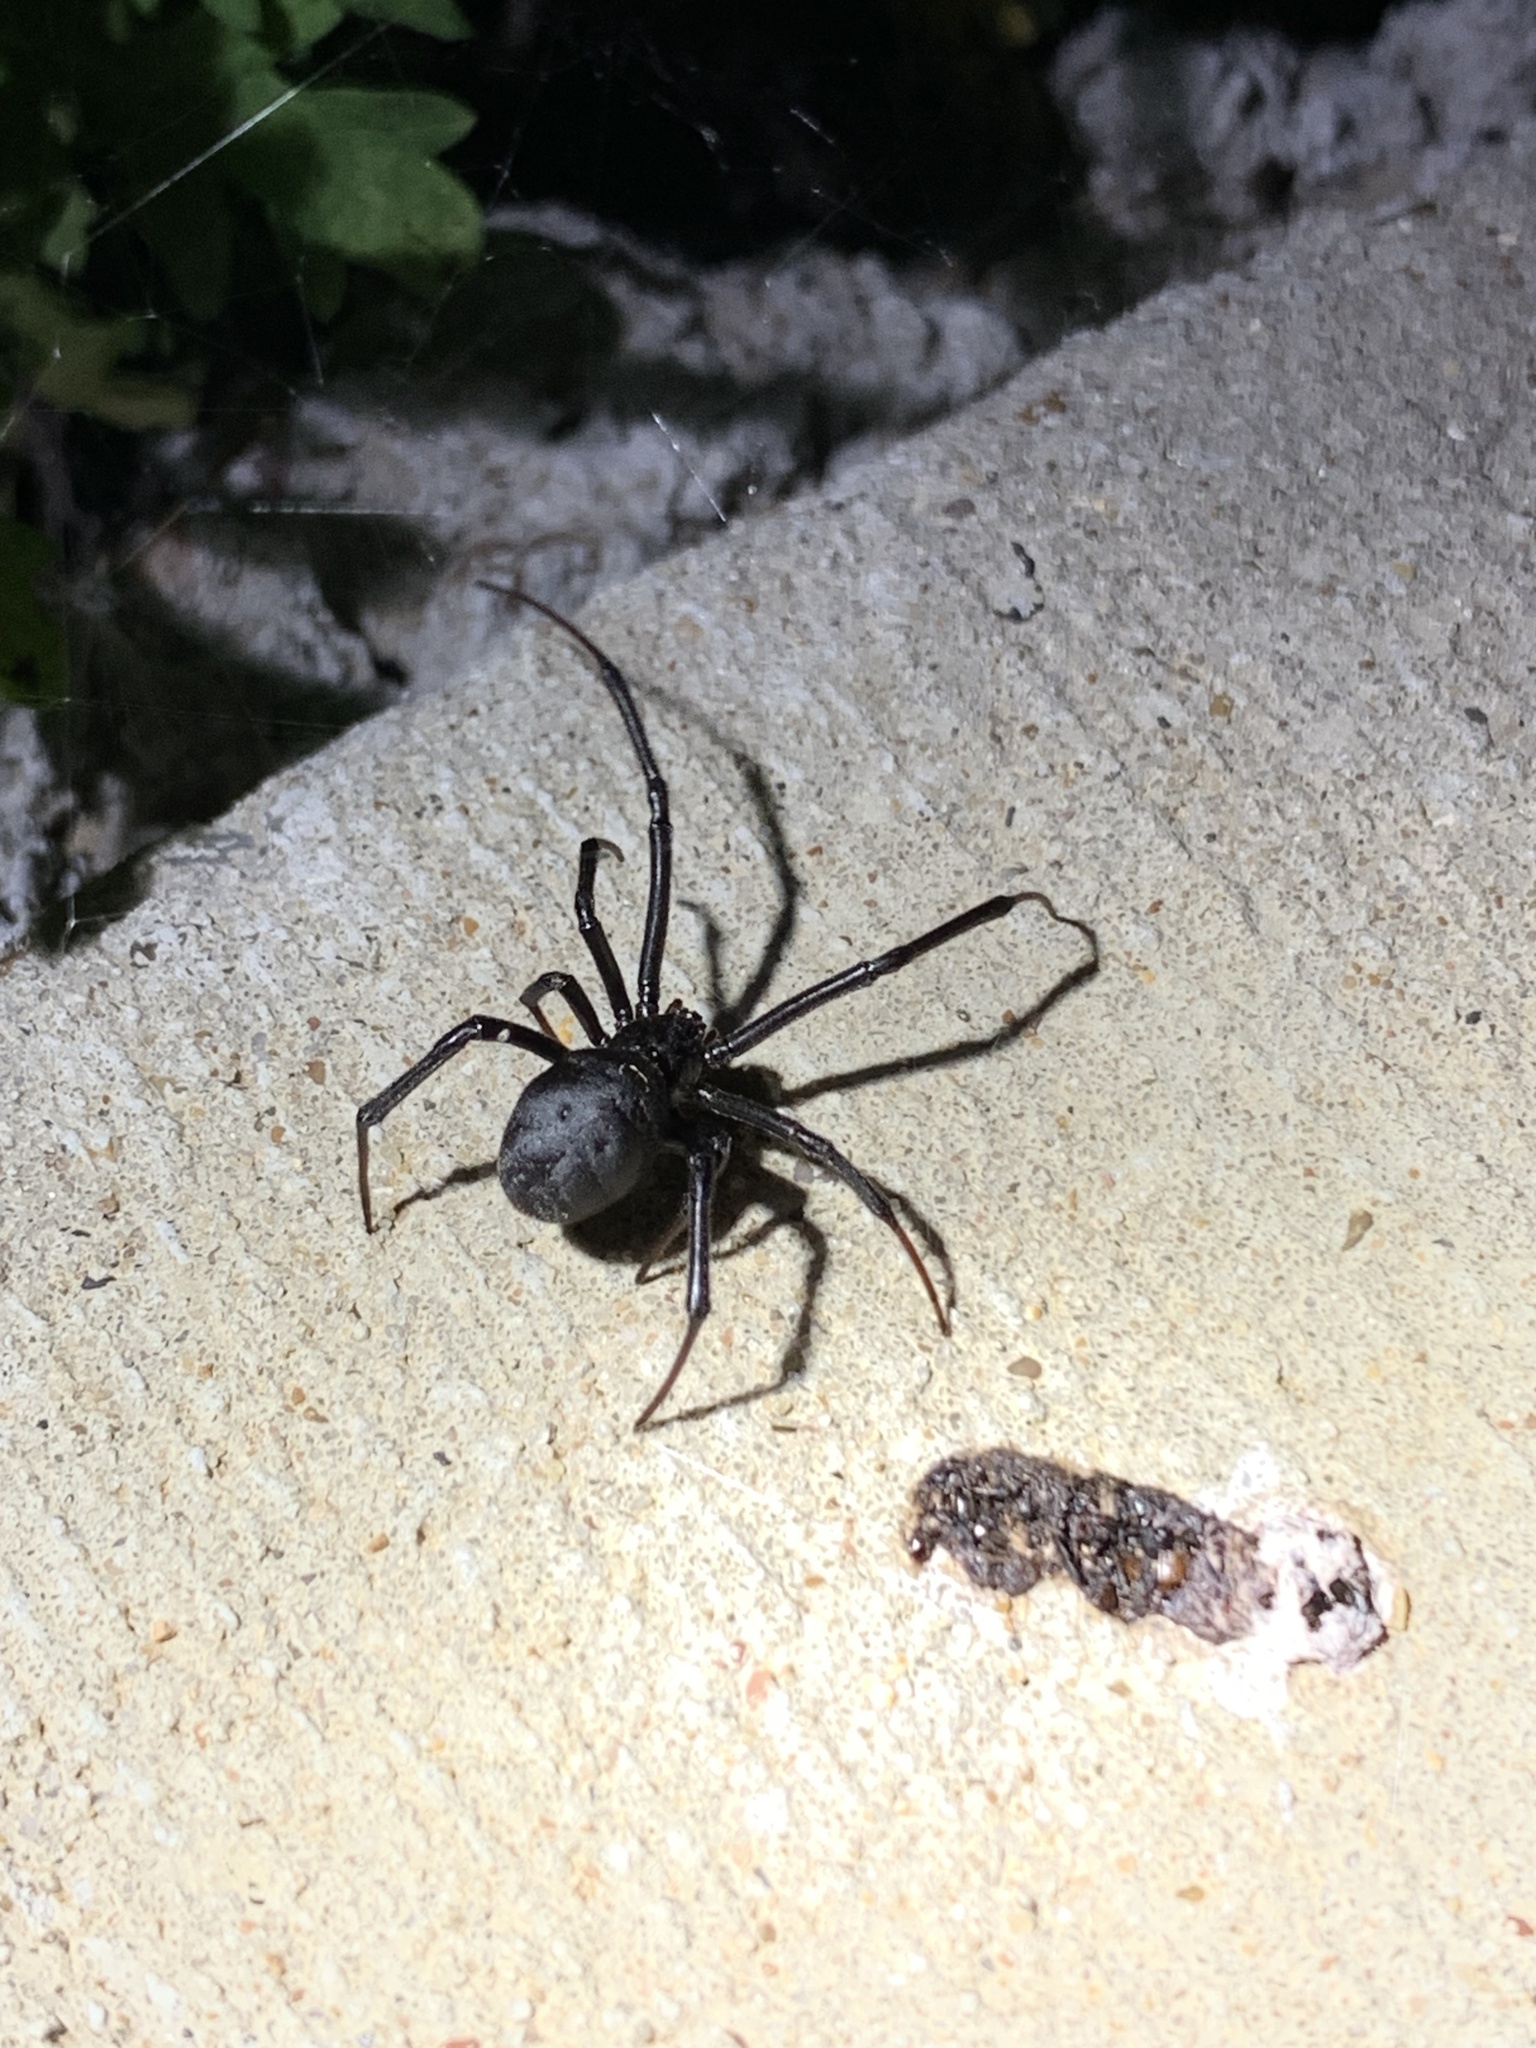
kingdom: Animalia
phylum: Arthropoda
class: Arachnida
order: Araneae
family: Theridiidae
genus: Latrodectus
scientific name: Latrodectus mactans
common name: Cobweb spiders
